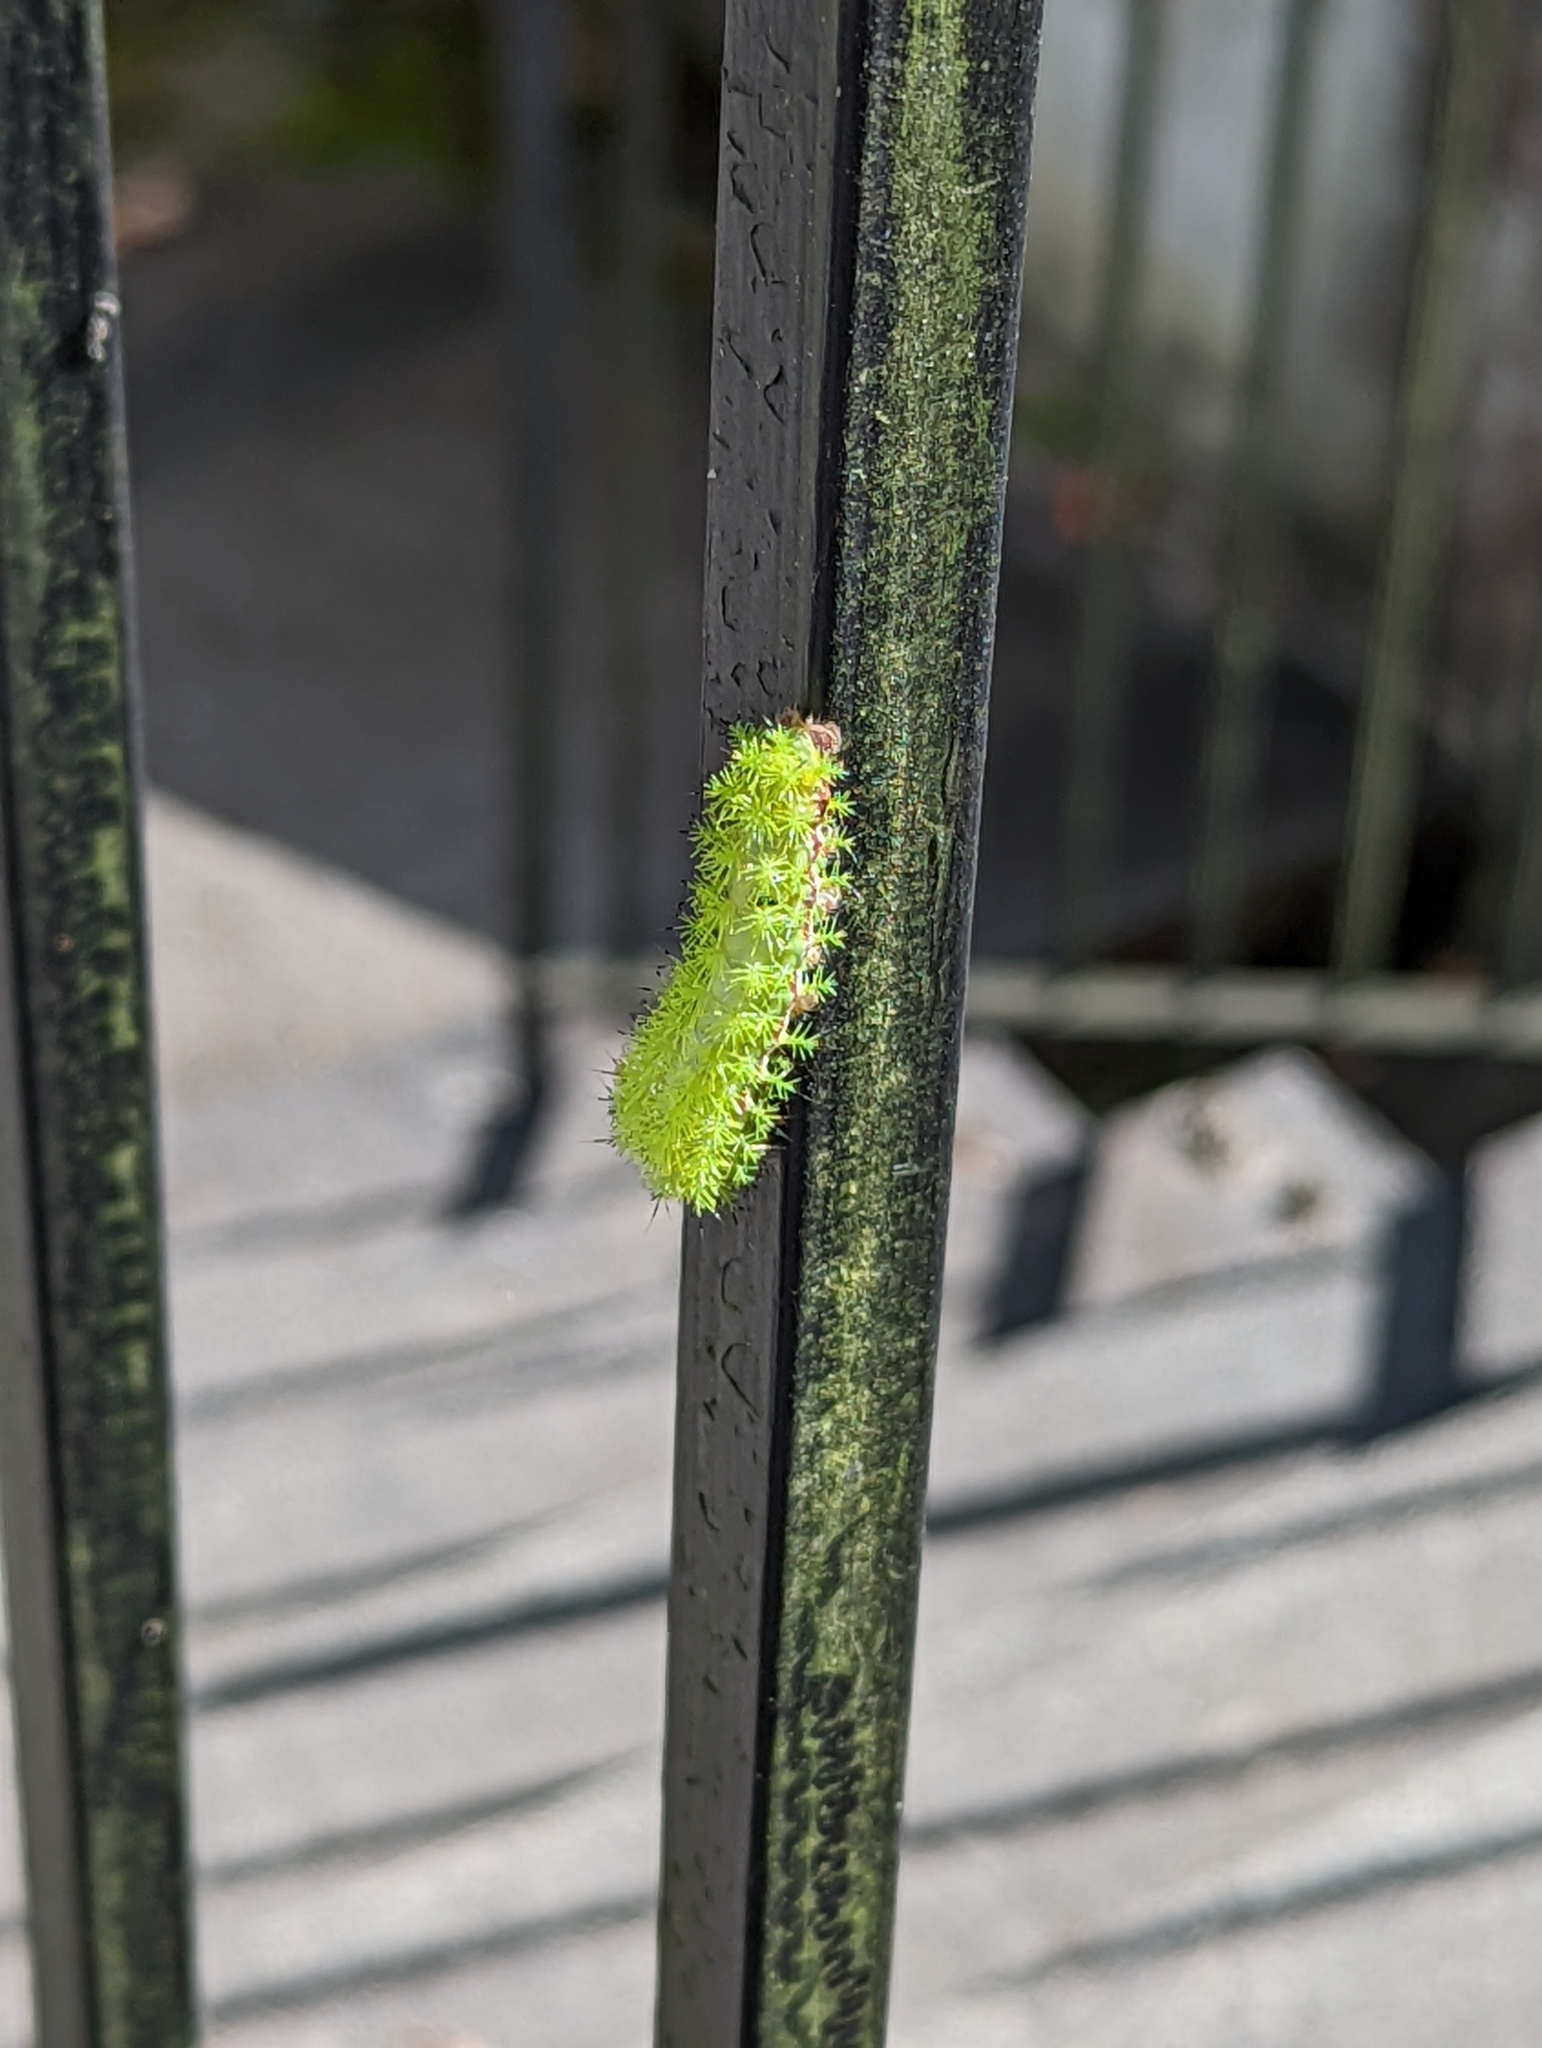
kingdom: Animalia
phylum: Arthropoda
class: Insecta
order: Lepidoptera
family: Saturniidae
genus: Automeris
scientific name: Automeris io
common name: Io moth
